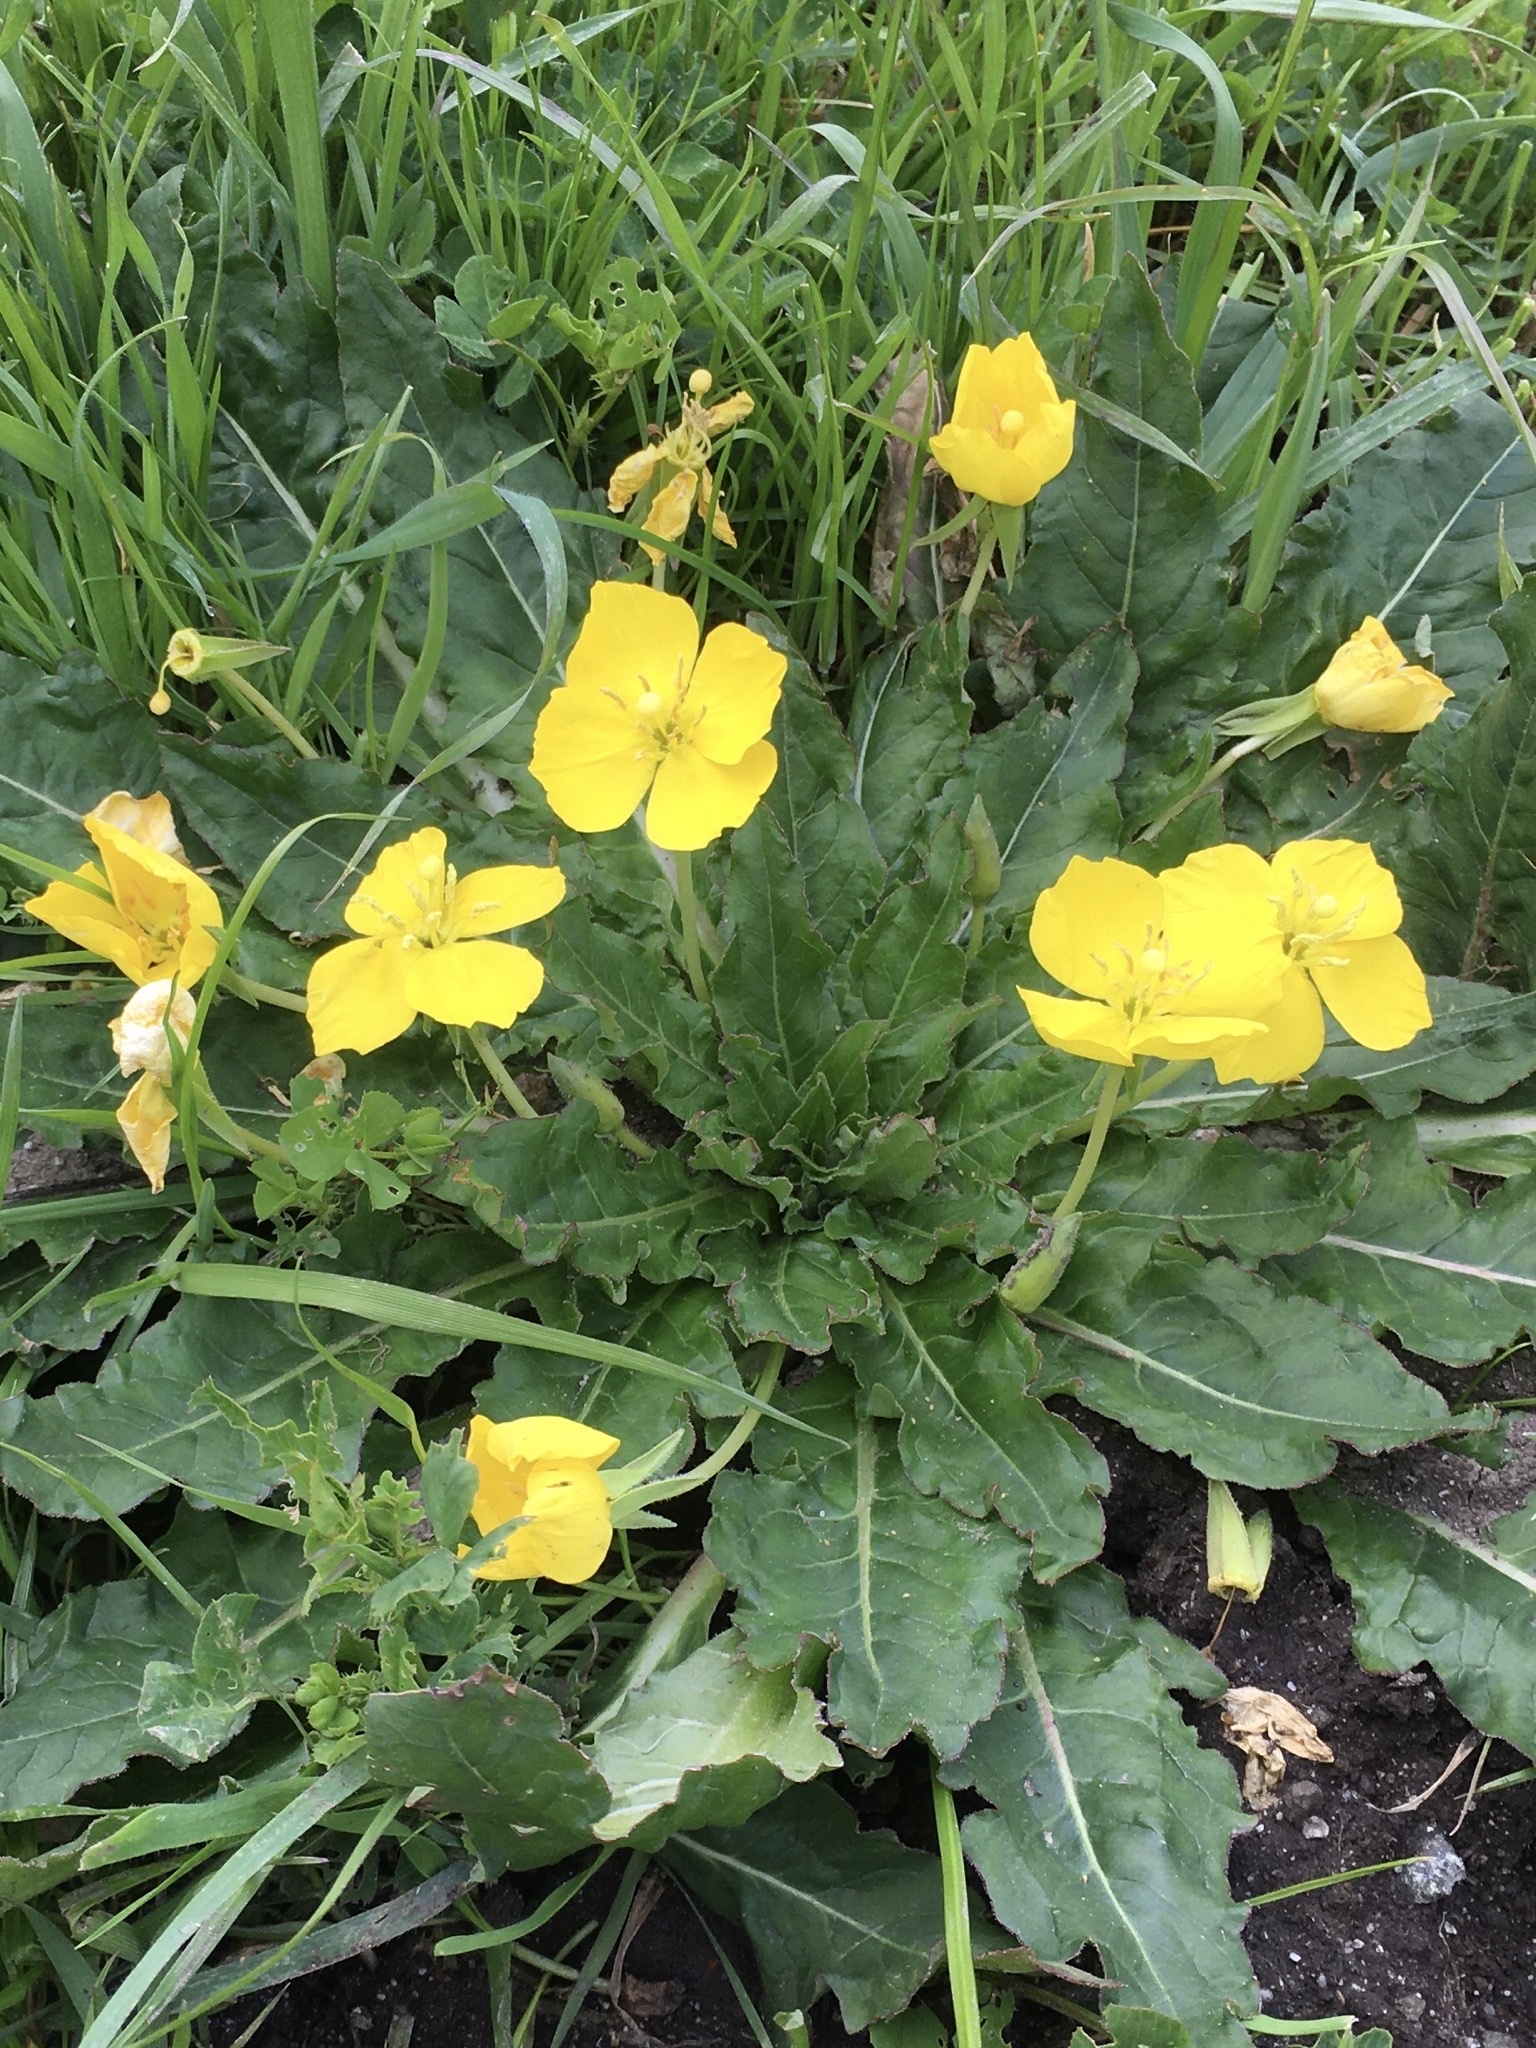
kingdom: Plantae
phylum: Tracheophyta
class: Magnoliopsida
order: Myrtales
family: Onagraceae
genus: Taraxia
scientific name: Taraxia ovata
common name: Goldeneggs
